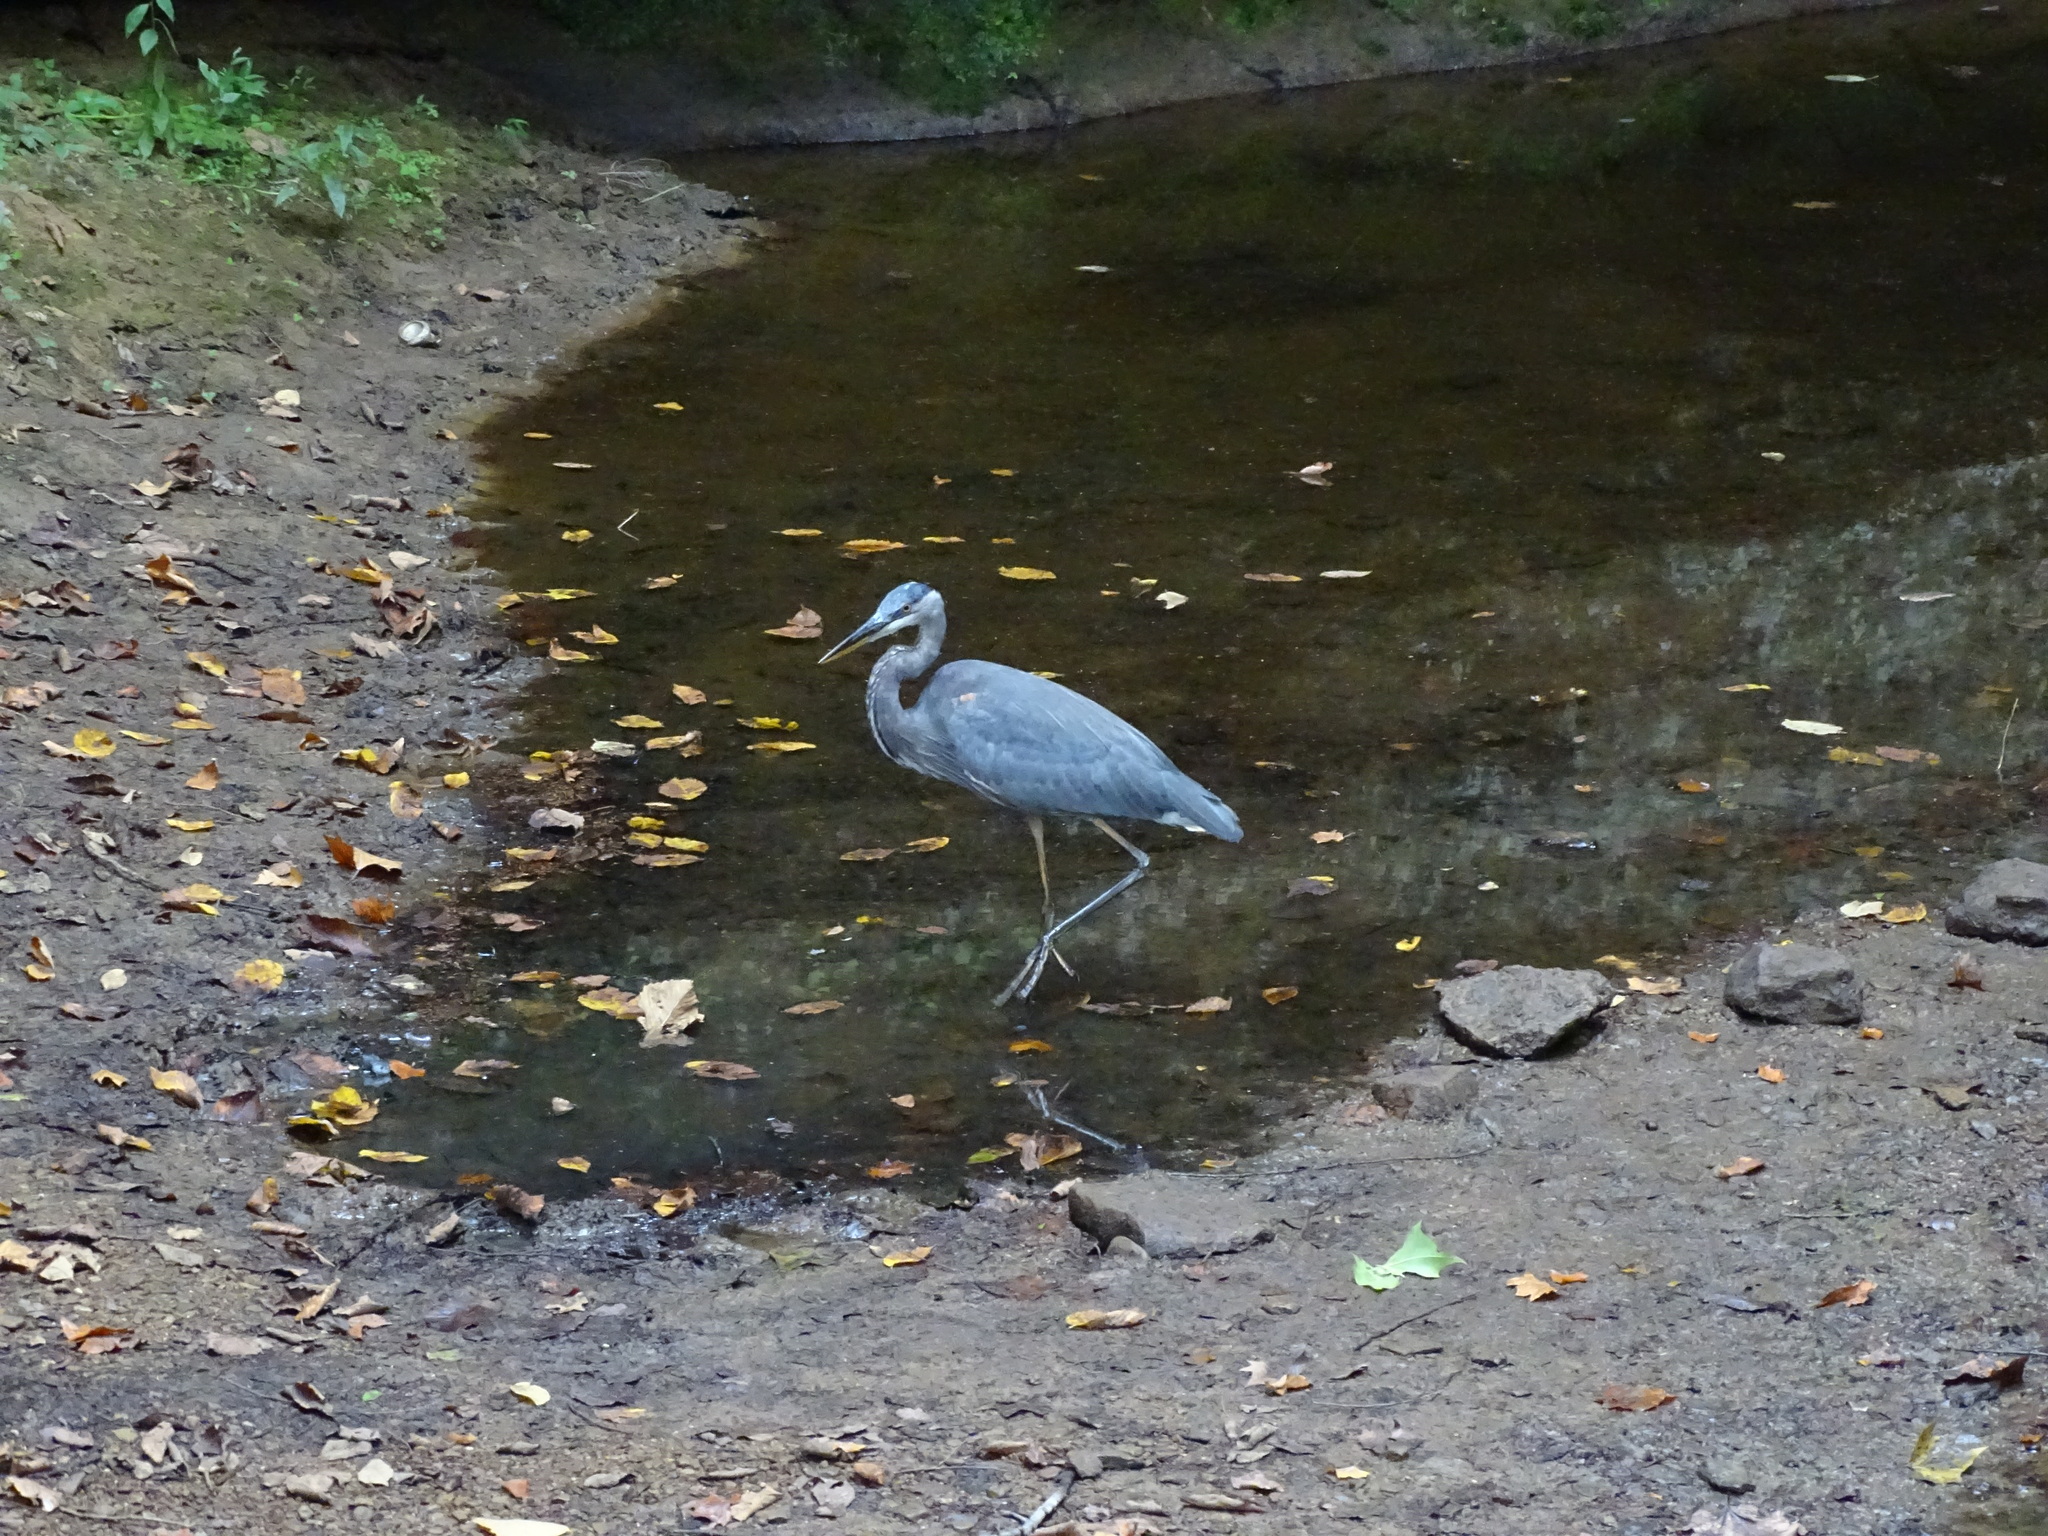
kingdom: Animalia
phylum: Chordata
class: Aves
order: Pelecaniformes
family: Ardeidae
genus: Ardea
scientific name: Ardea herodias
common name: Great blue heron
